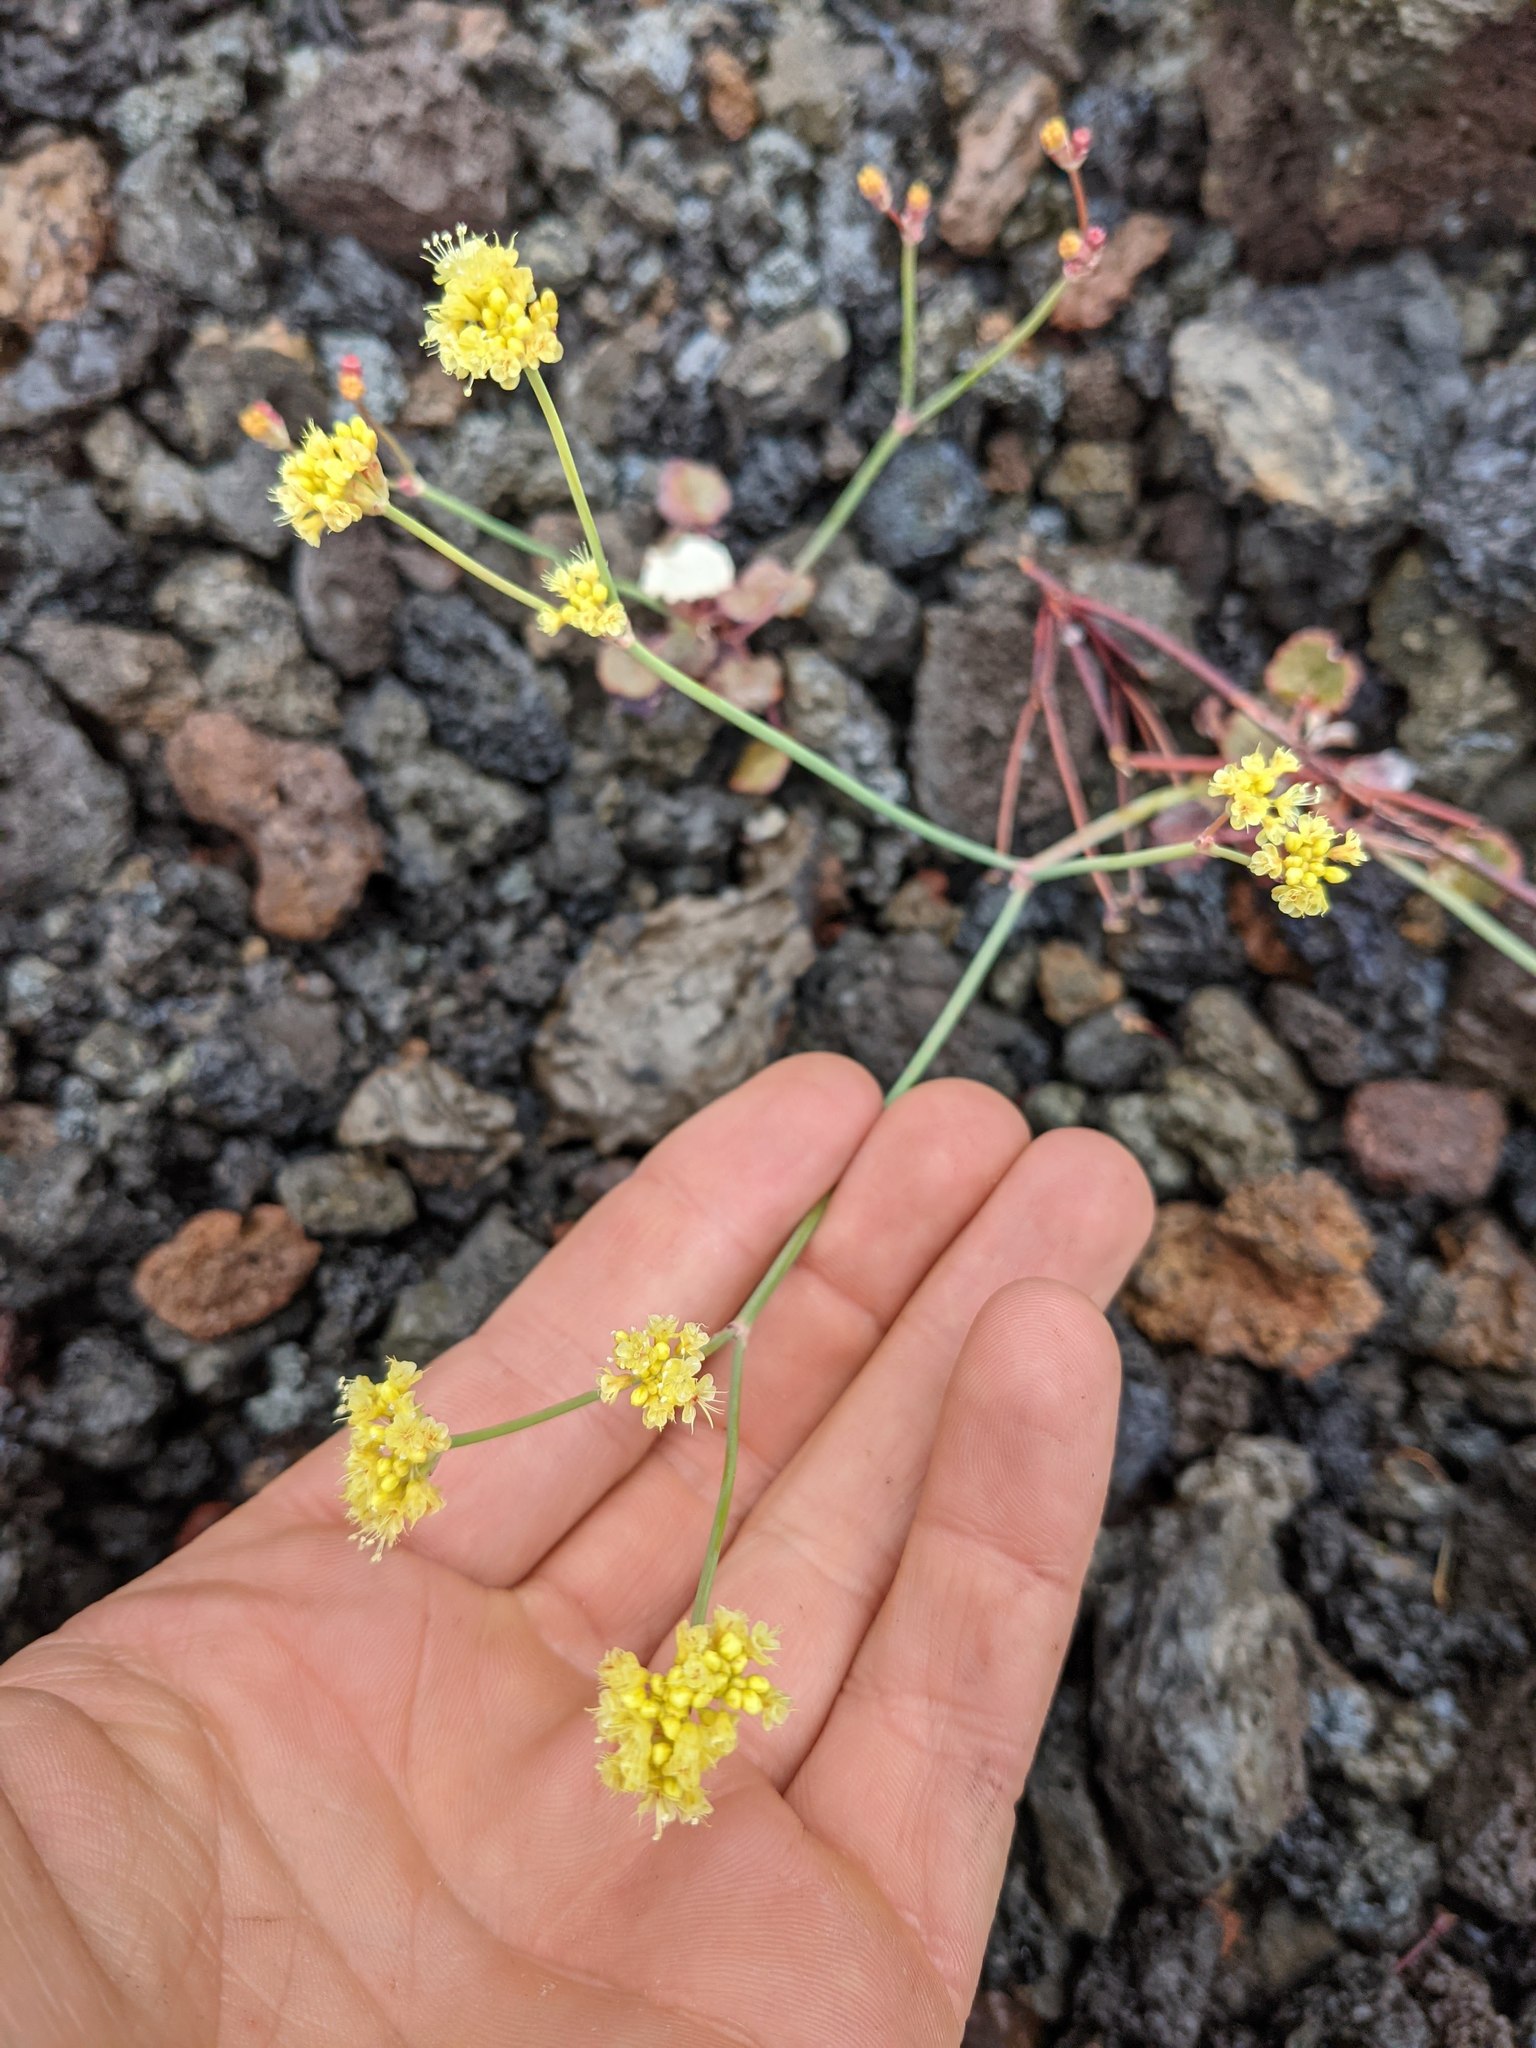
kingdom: Plantae
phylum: Tracheophyta
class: Magnoliopsida
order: Caryophyllales
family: Polygonaceae
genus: Eriogonum
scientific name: Eriogonum nudum
